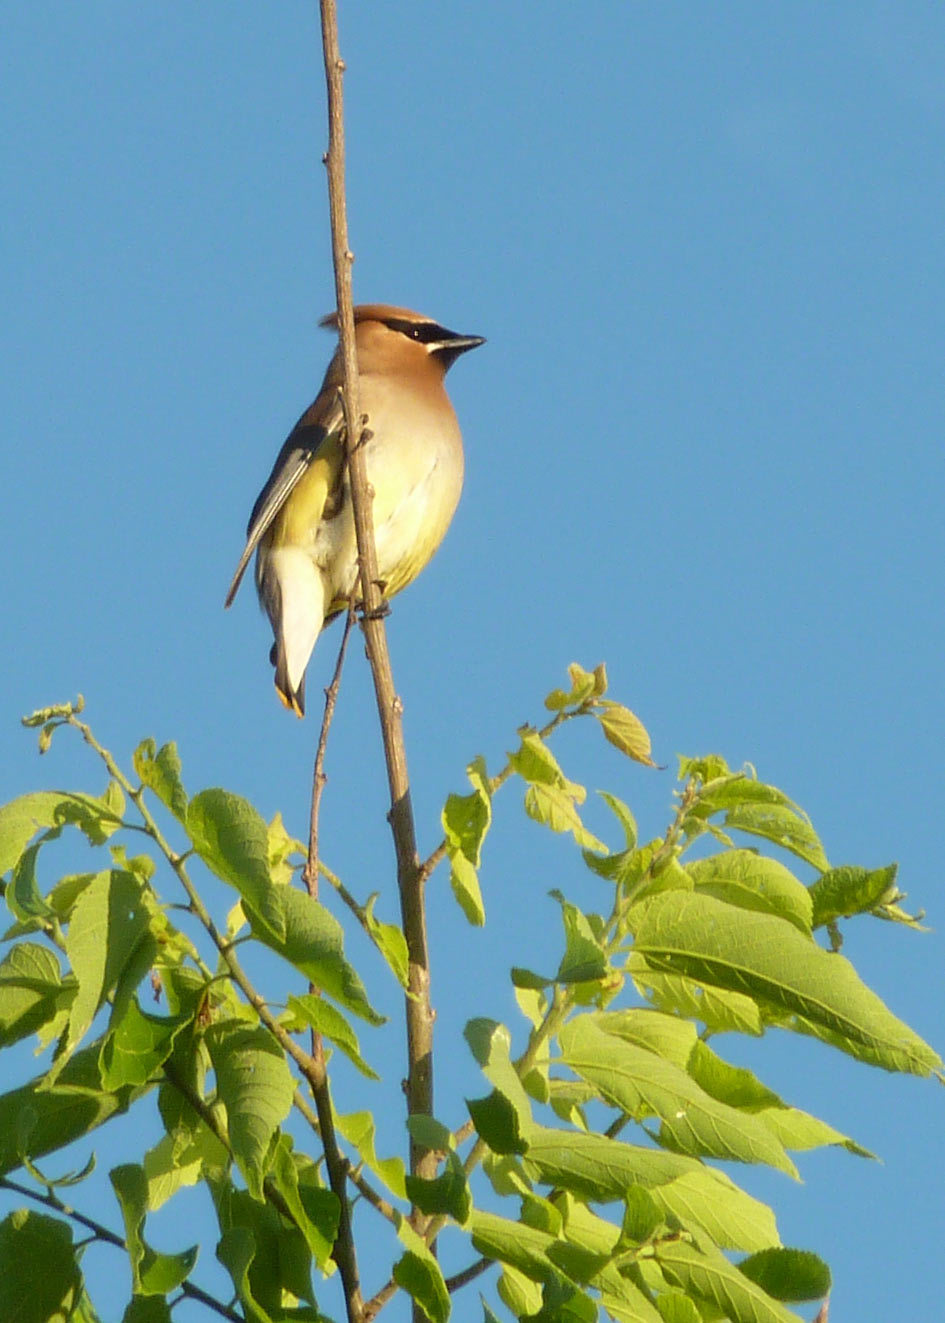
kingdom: Animalia
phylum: Chordata
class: Aves
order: Passeriformes
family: Bombycillidae
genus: Bombycilla
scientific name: Bombycilla cedrorum
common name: Cedar waxwing
